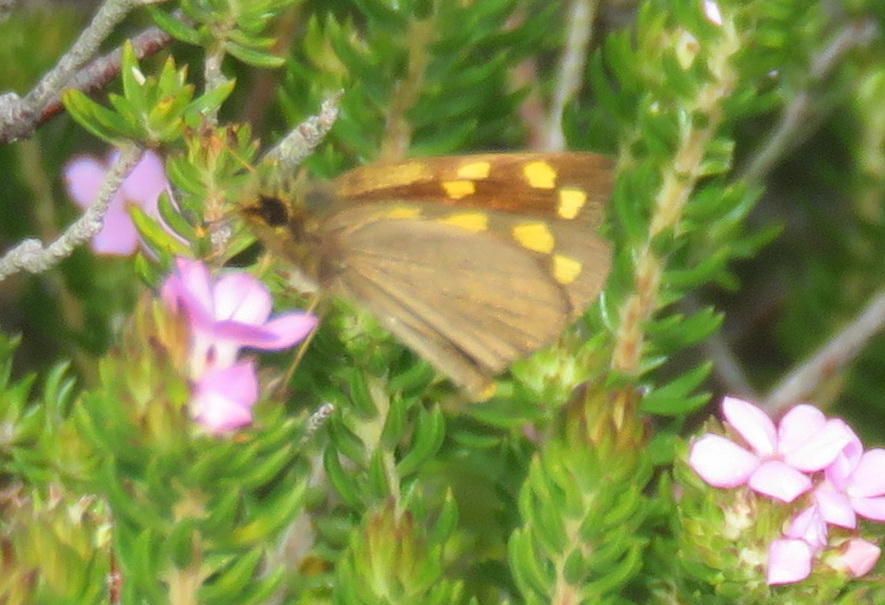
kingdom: Animalia
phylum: Arthropoda
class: Insecta
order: Lepidoptera
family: Hesperiidae
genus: Metisella
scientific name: Metisella metis
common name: Western gold-spotted sylph
